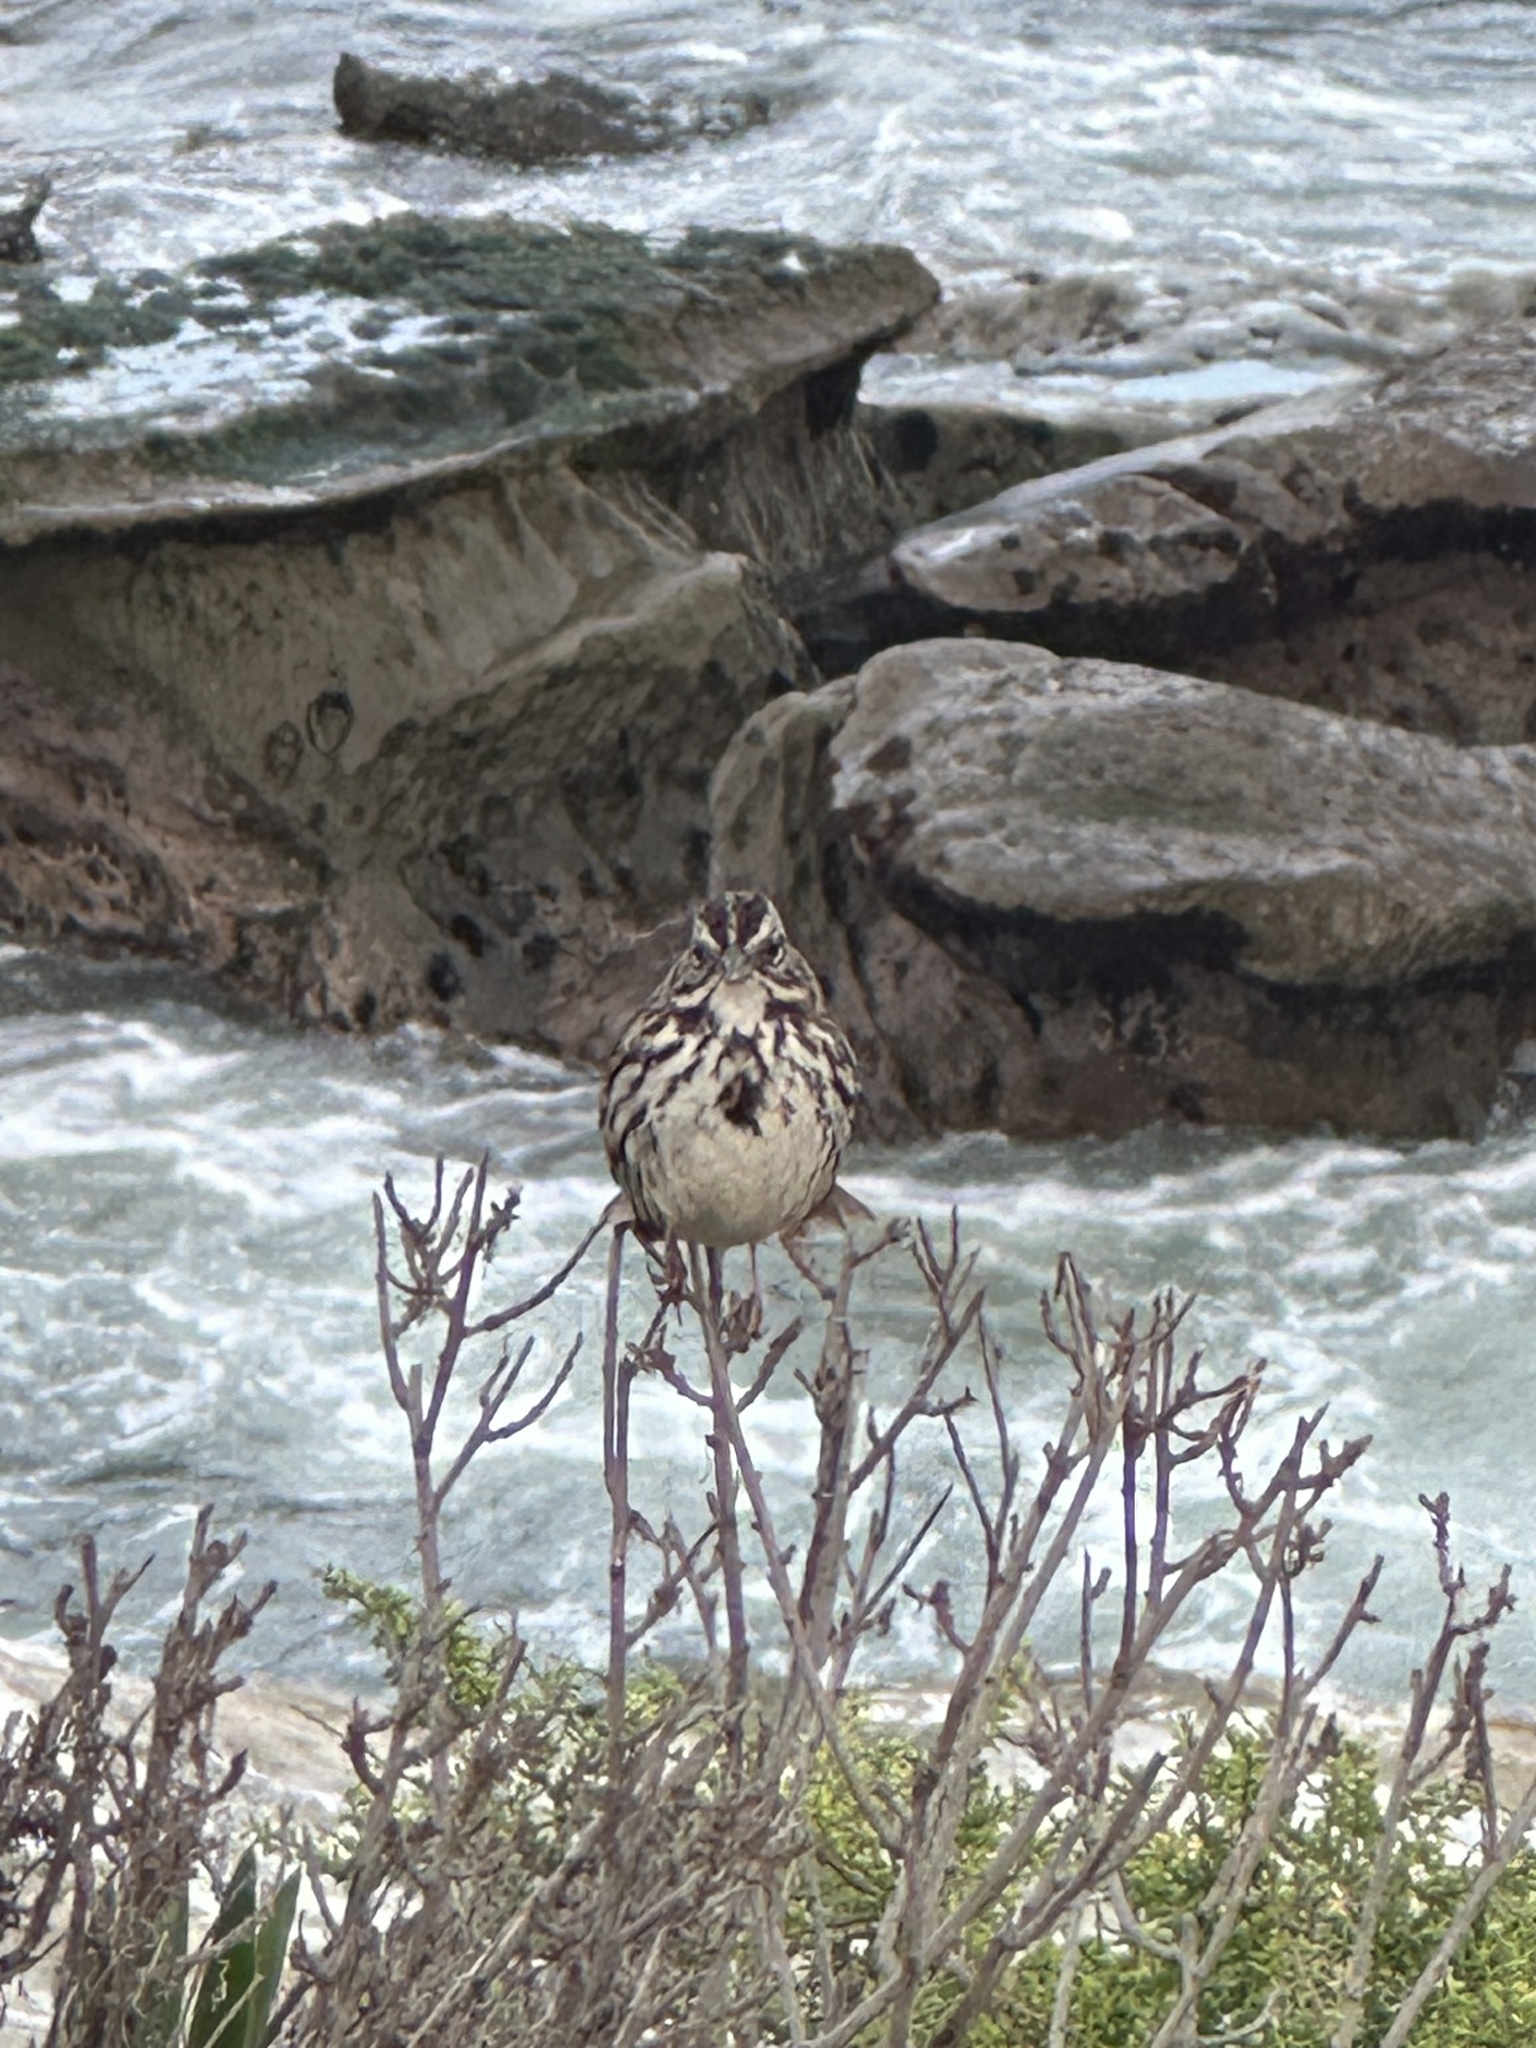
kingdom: Animalia
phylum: Chordata
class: Aves
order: Passeriformes
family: Passerellidae
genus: Melospiza
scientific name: Melospiza melodia
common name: Song sparrow
